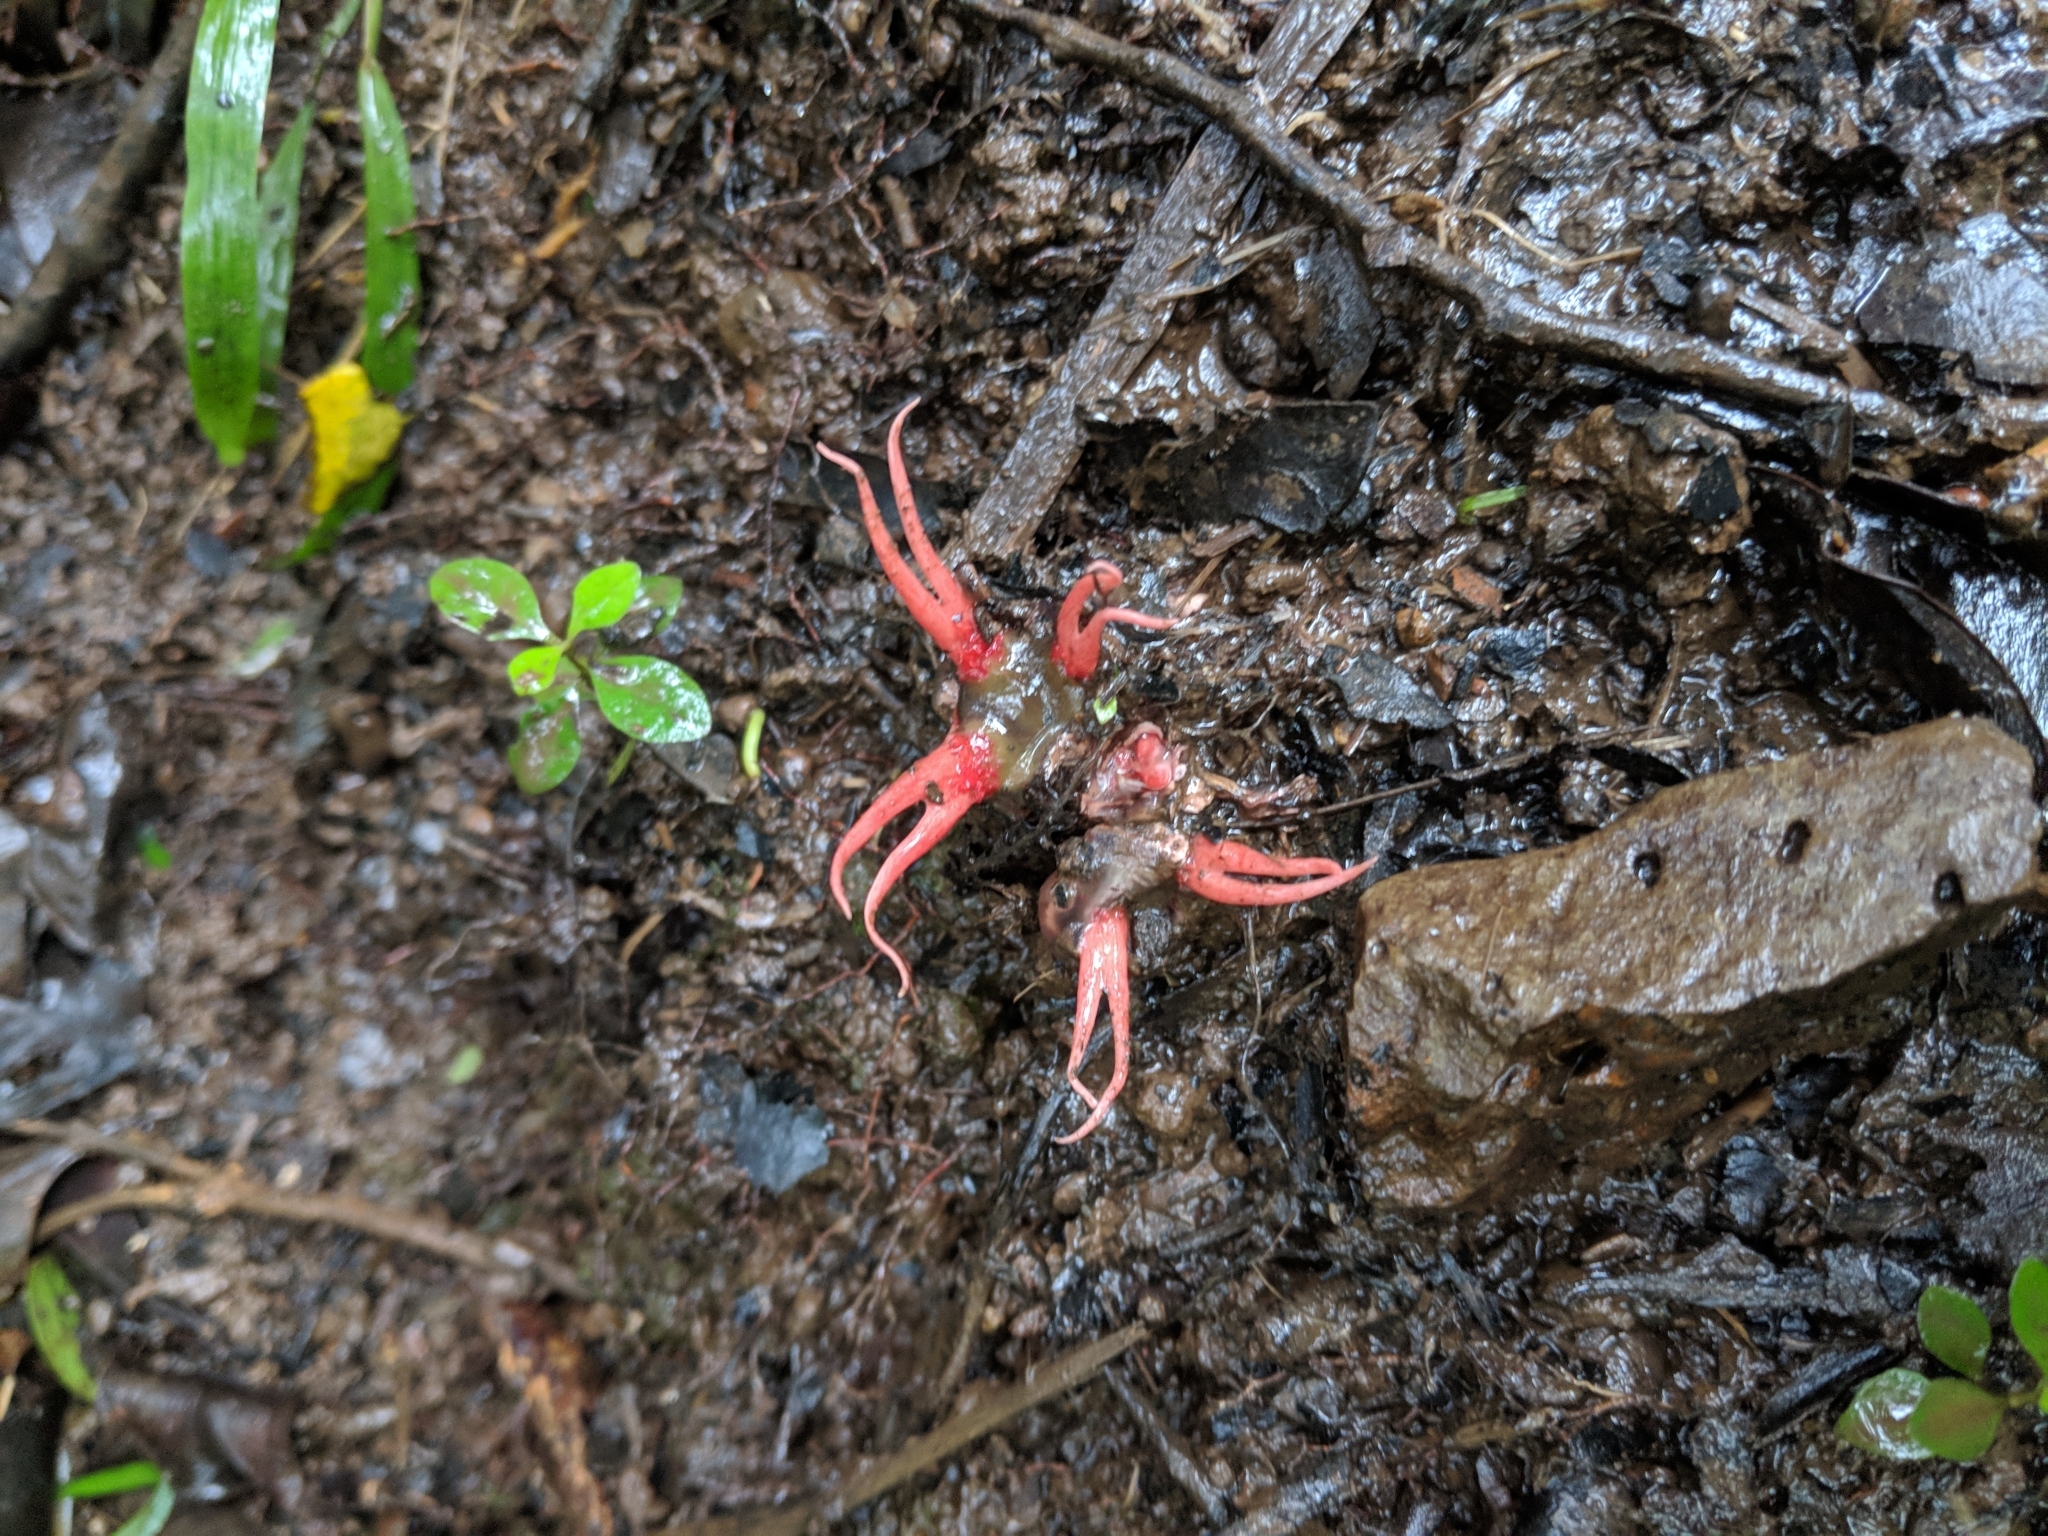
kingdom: Fungi
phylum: Basidiomycota
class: Agaricomycetes
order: Phallales
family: Phallaceae
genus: Aseroe
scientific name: Aseroe rubra
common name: Starfish fungus
